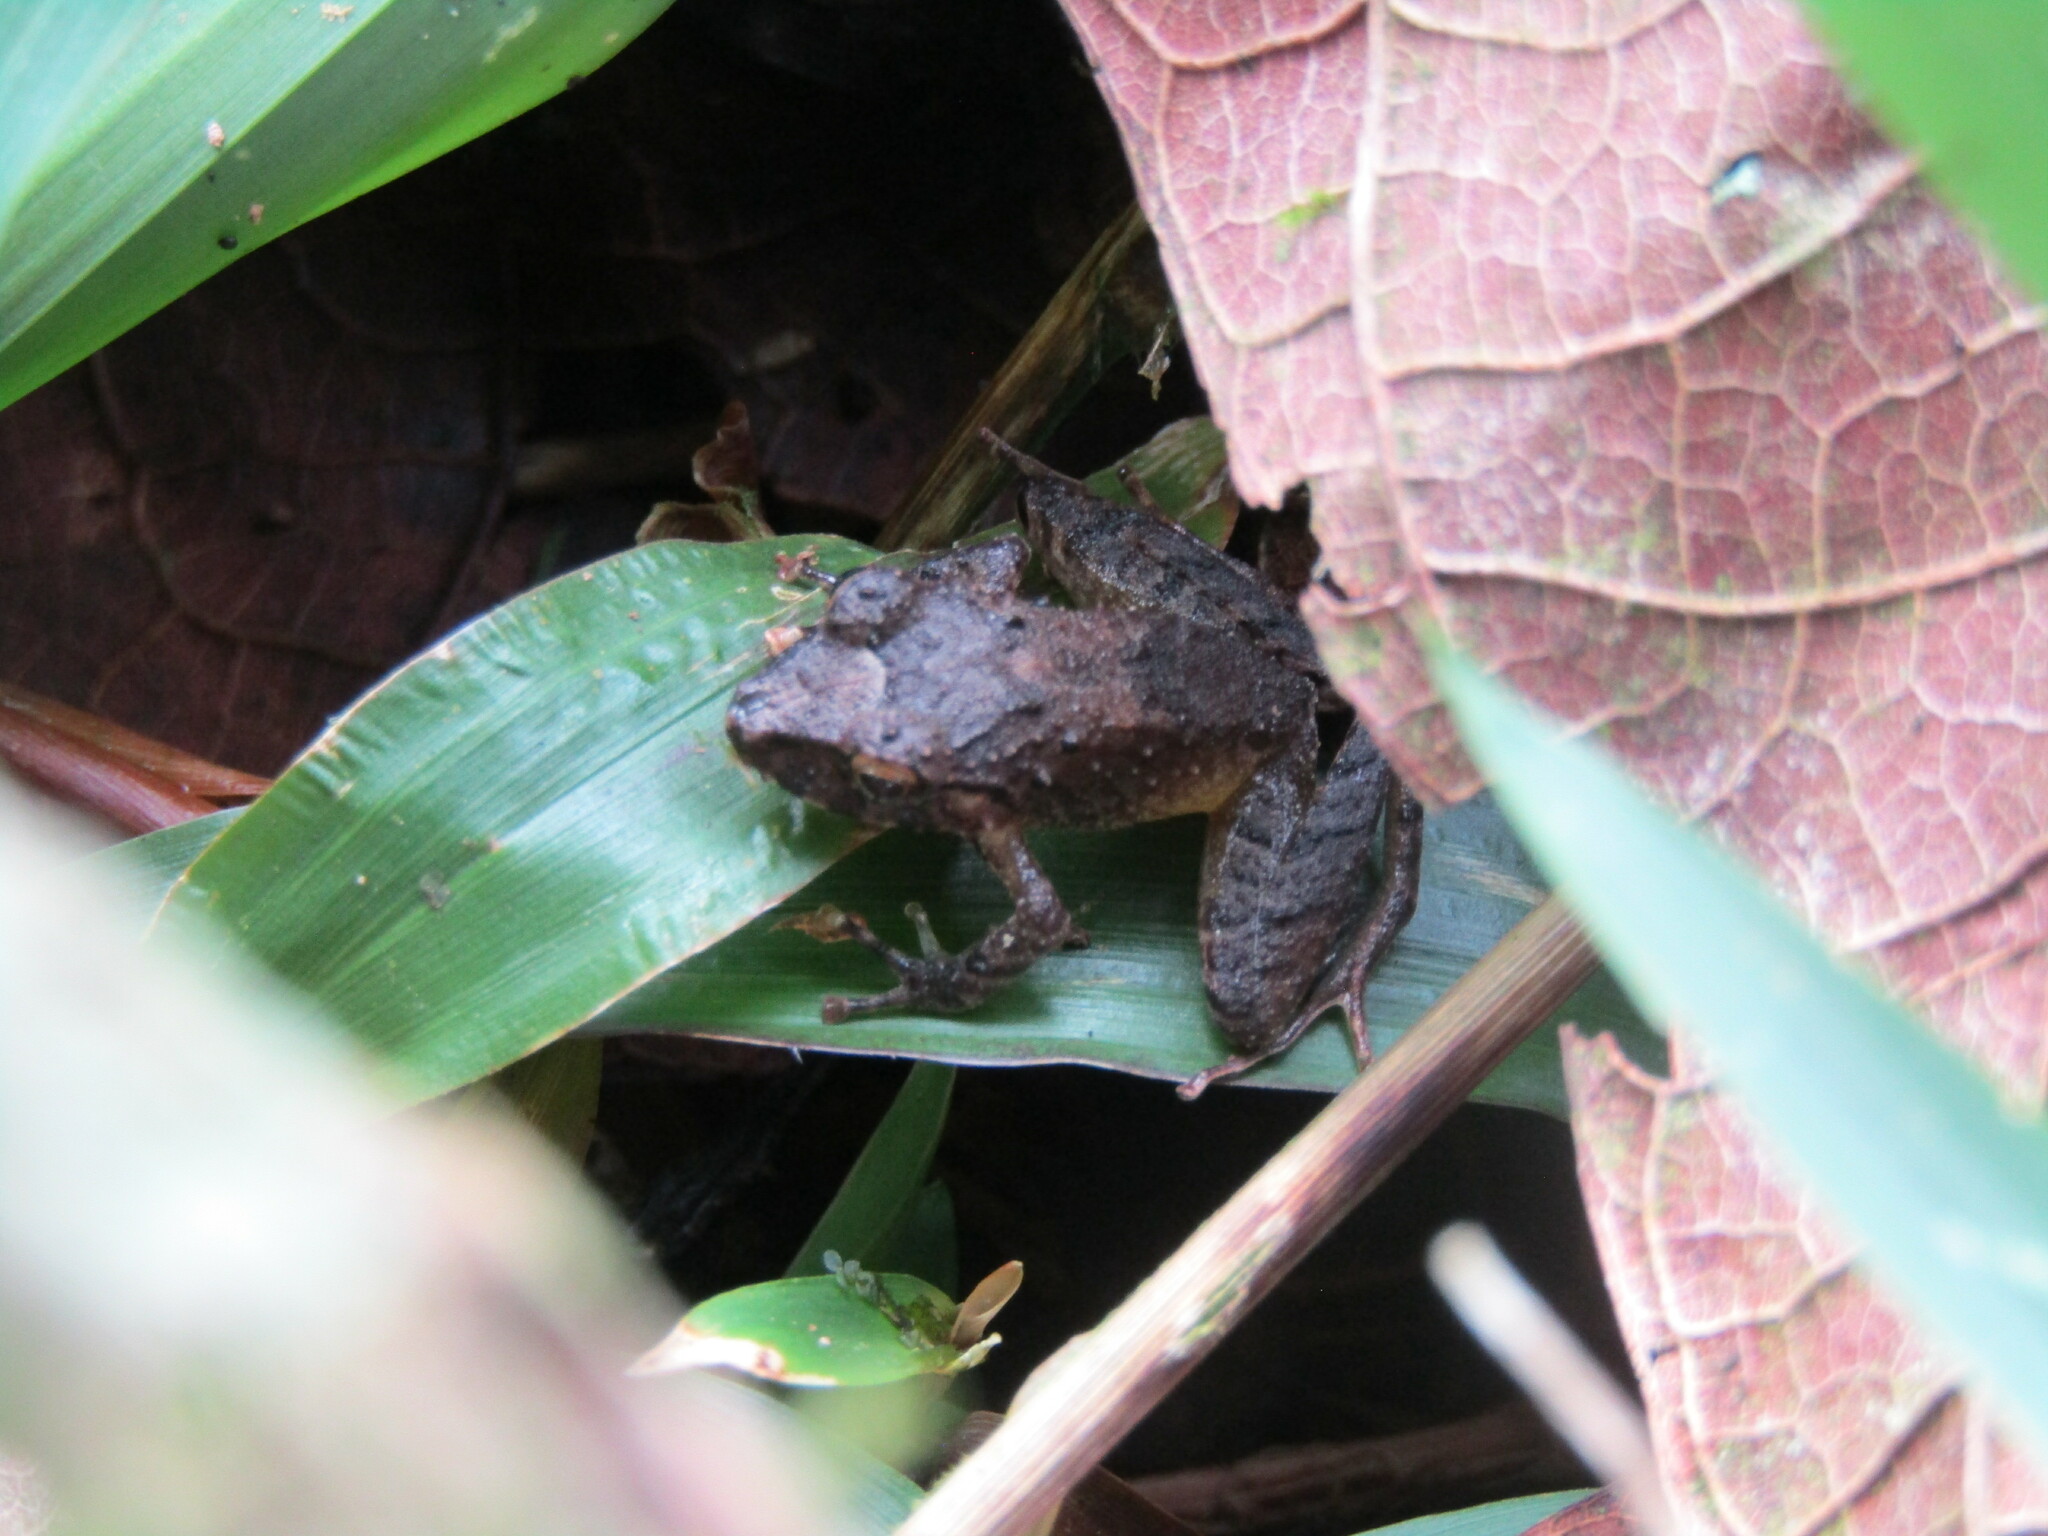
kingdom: Animalia
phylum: Chordata
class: Amphibia
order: Anura
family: Craugastoridae
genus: Craugastor
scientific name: Craugastor crassidigitus
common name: Isla bonita robber frog
